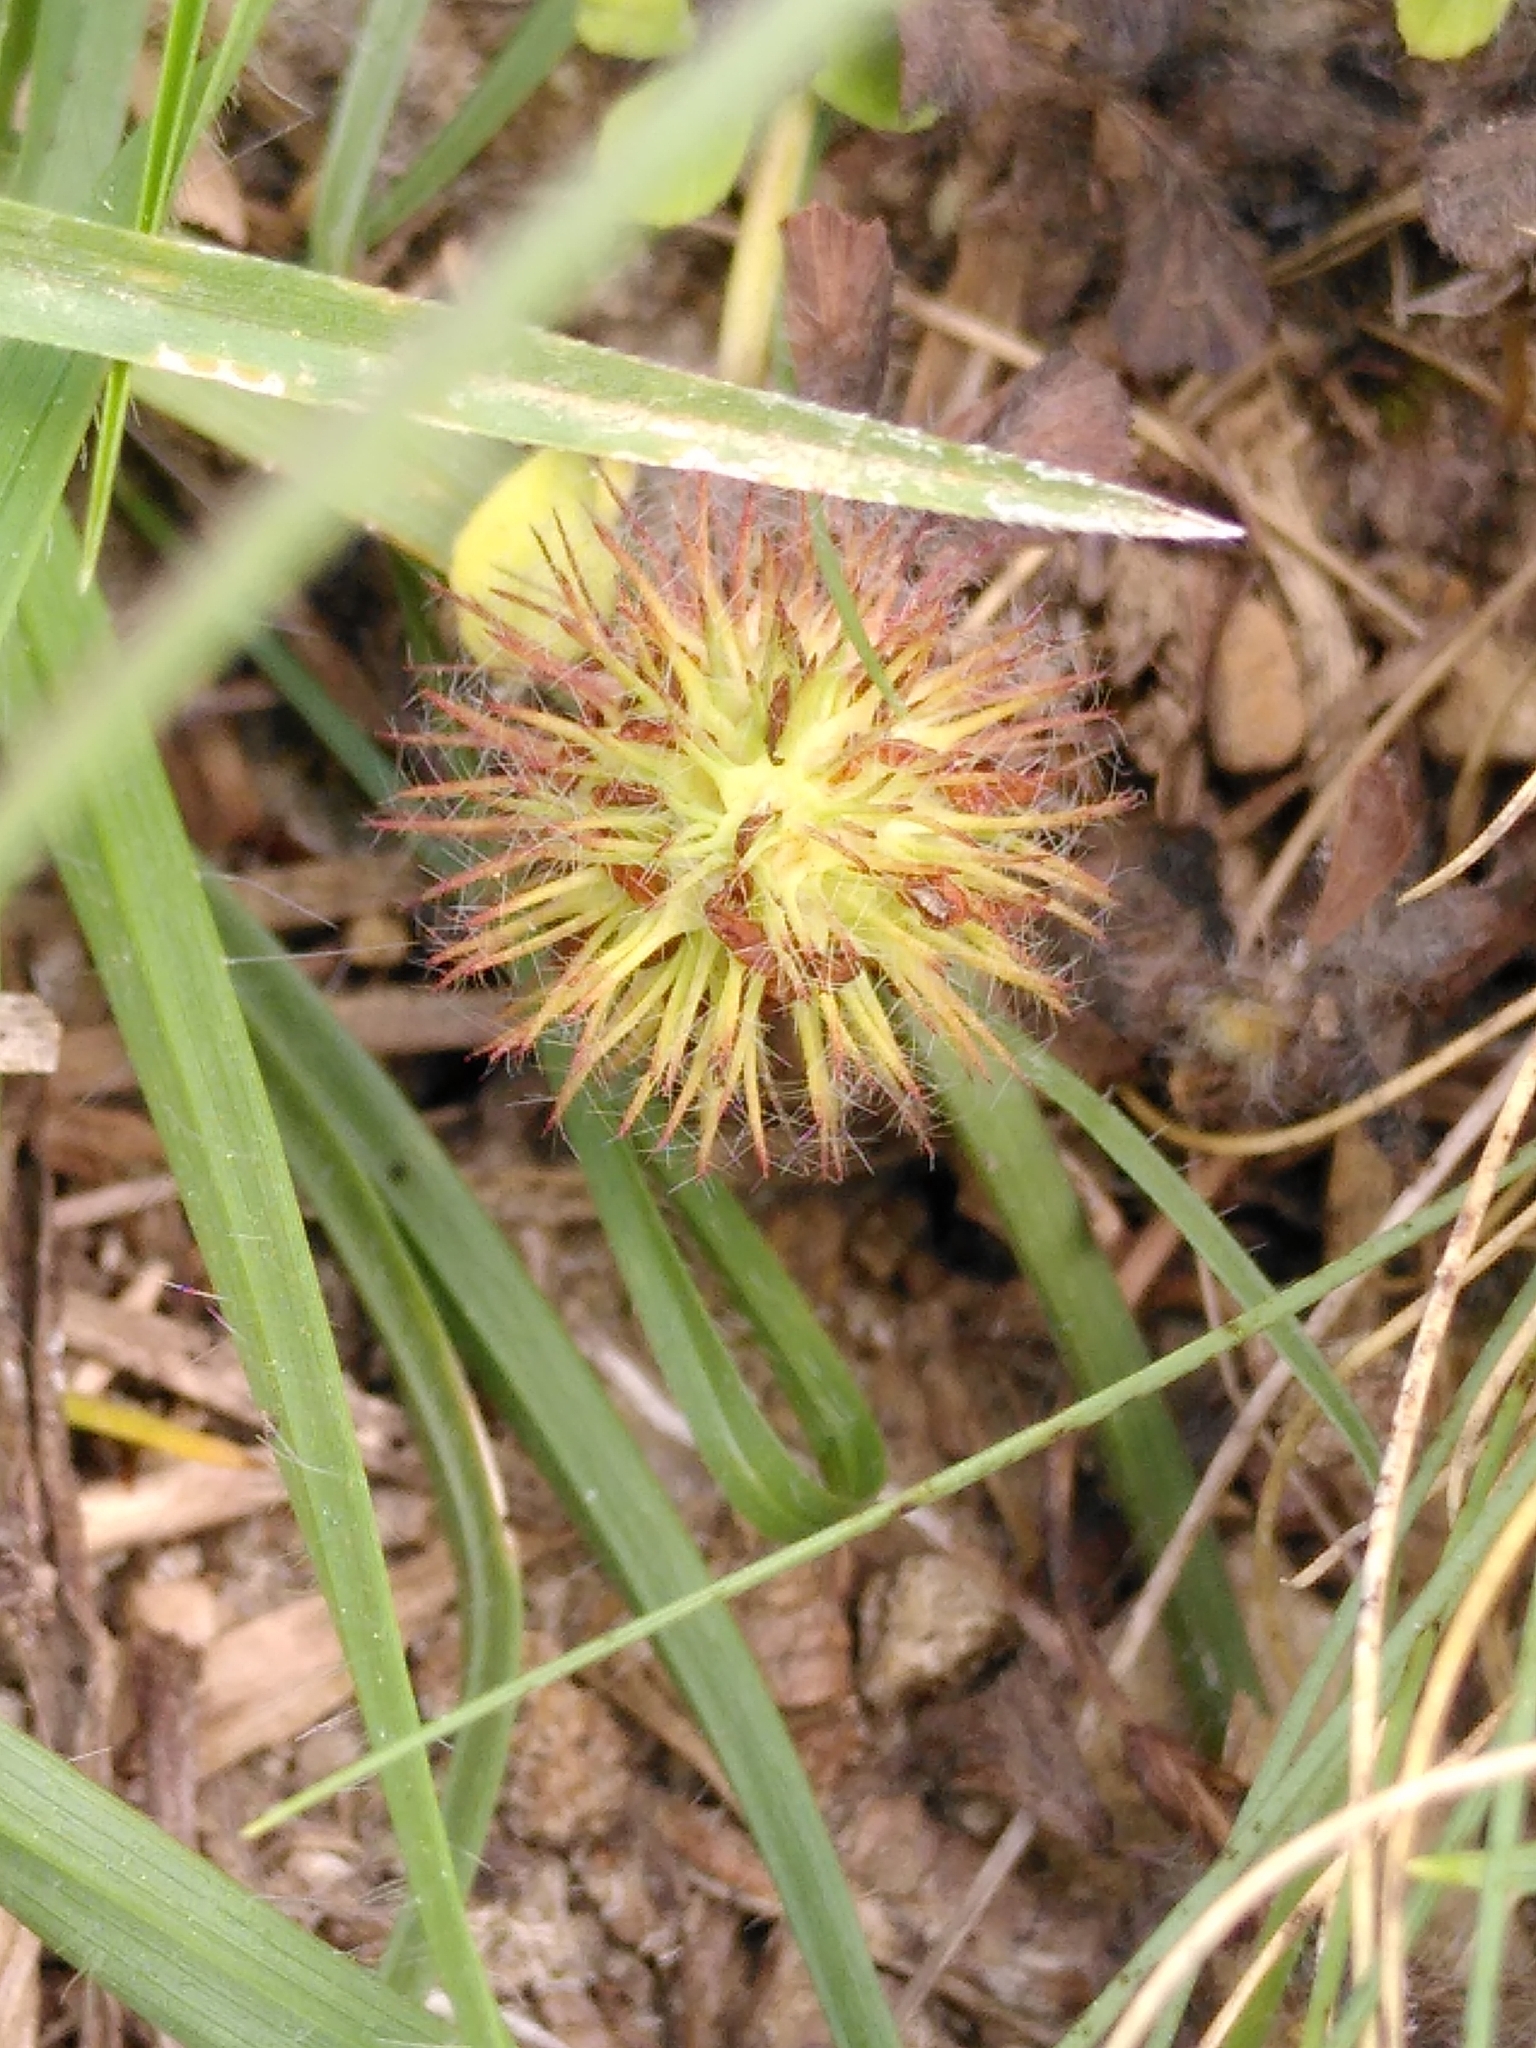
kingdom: Plantae
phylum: Tracheophyta
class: Magnoliopsida
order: Fabales
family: Fabaceae
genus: Trifolium
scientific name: Trifolium lappaceum
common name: Bur clover
